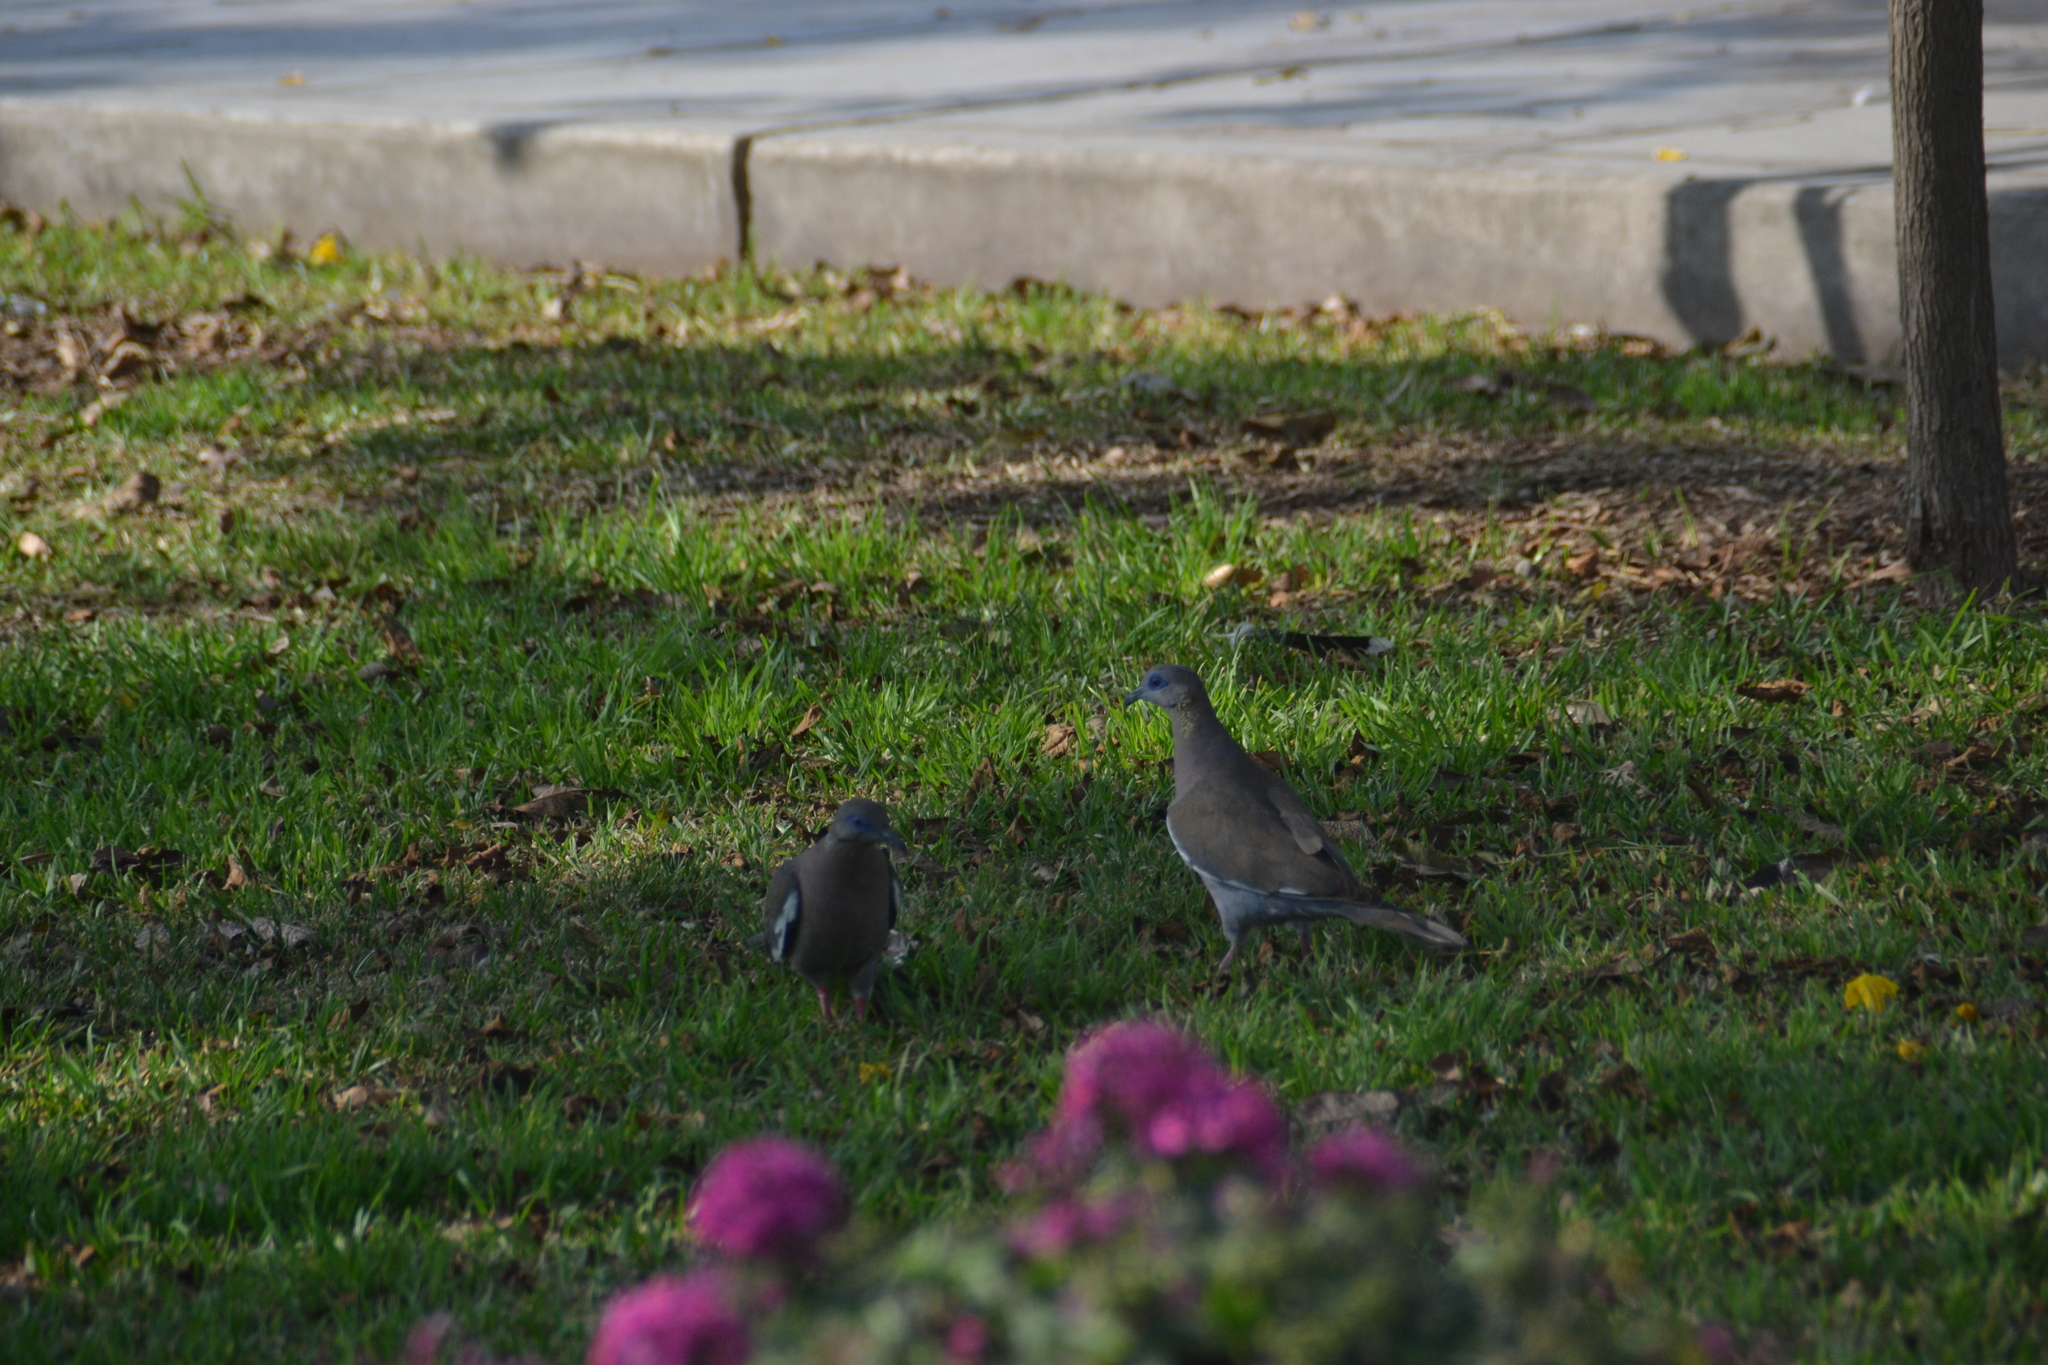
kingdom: Animalia
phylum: Chordata
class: Aves
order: Columbiformes
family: Columbidae
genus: Zenaida
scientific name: Zenaida meloda
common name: West peruvian dove
